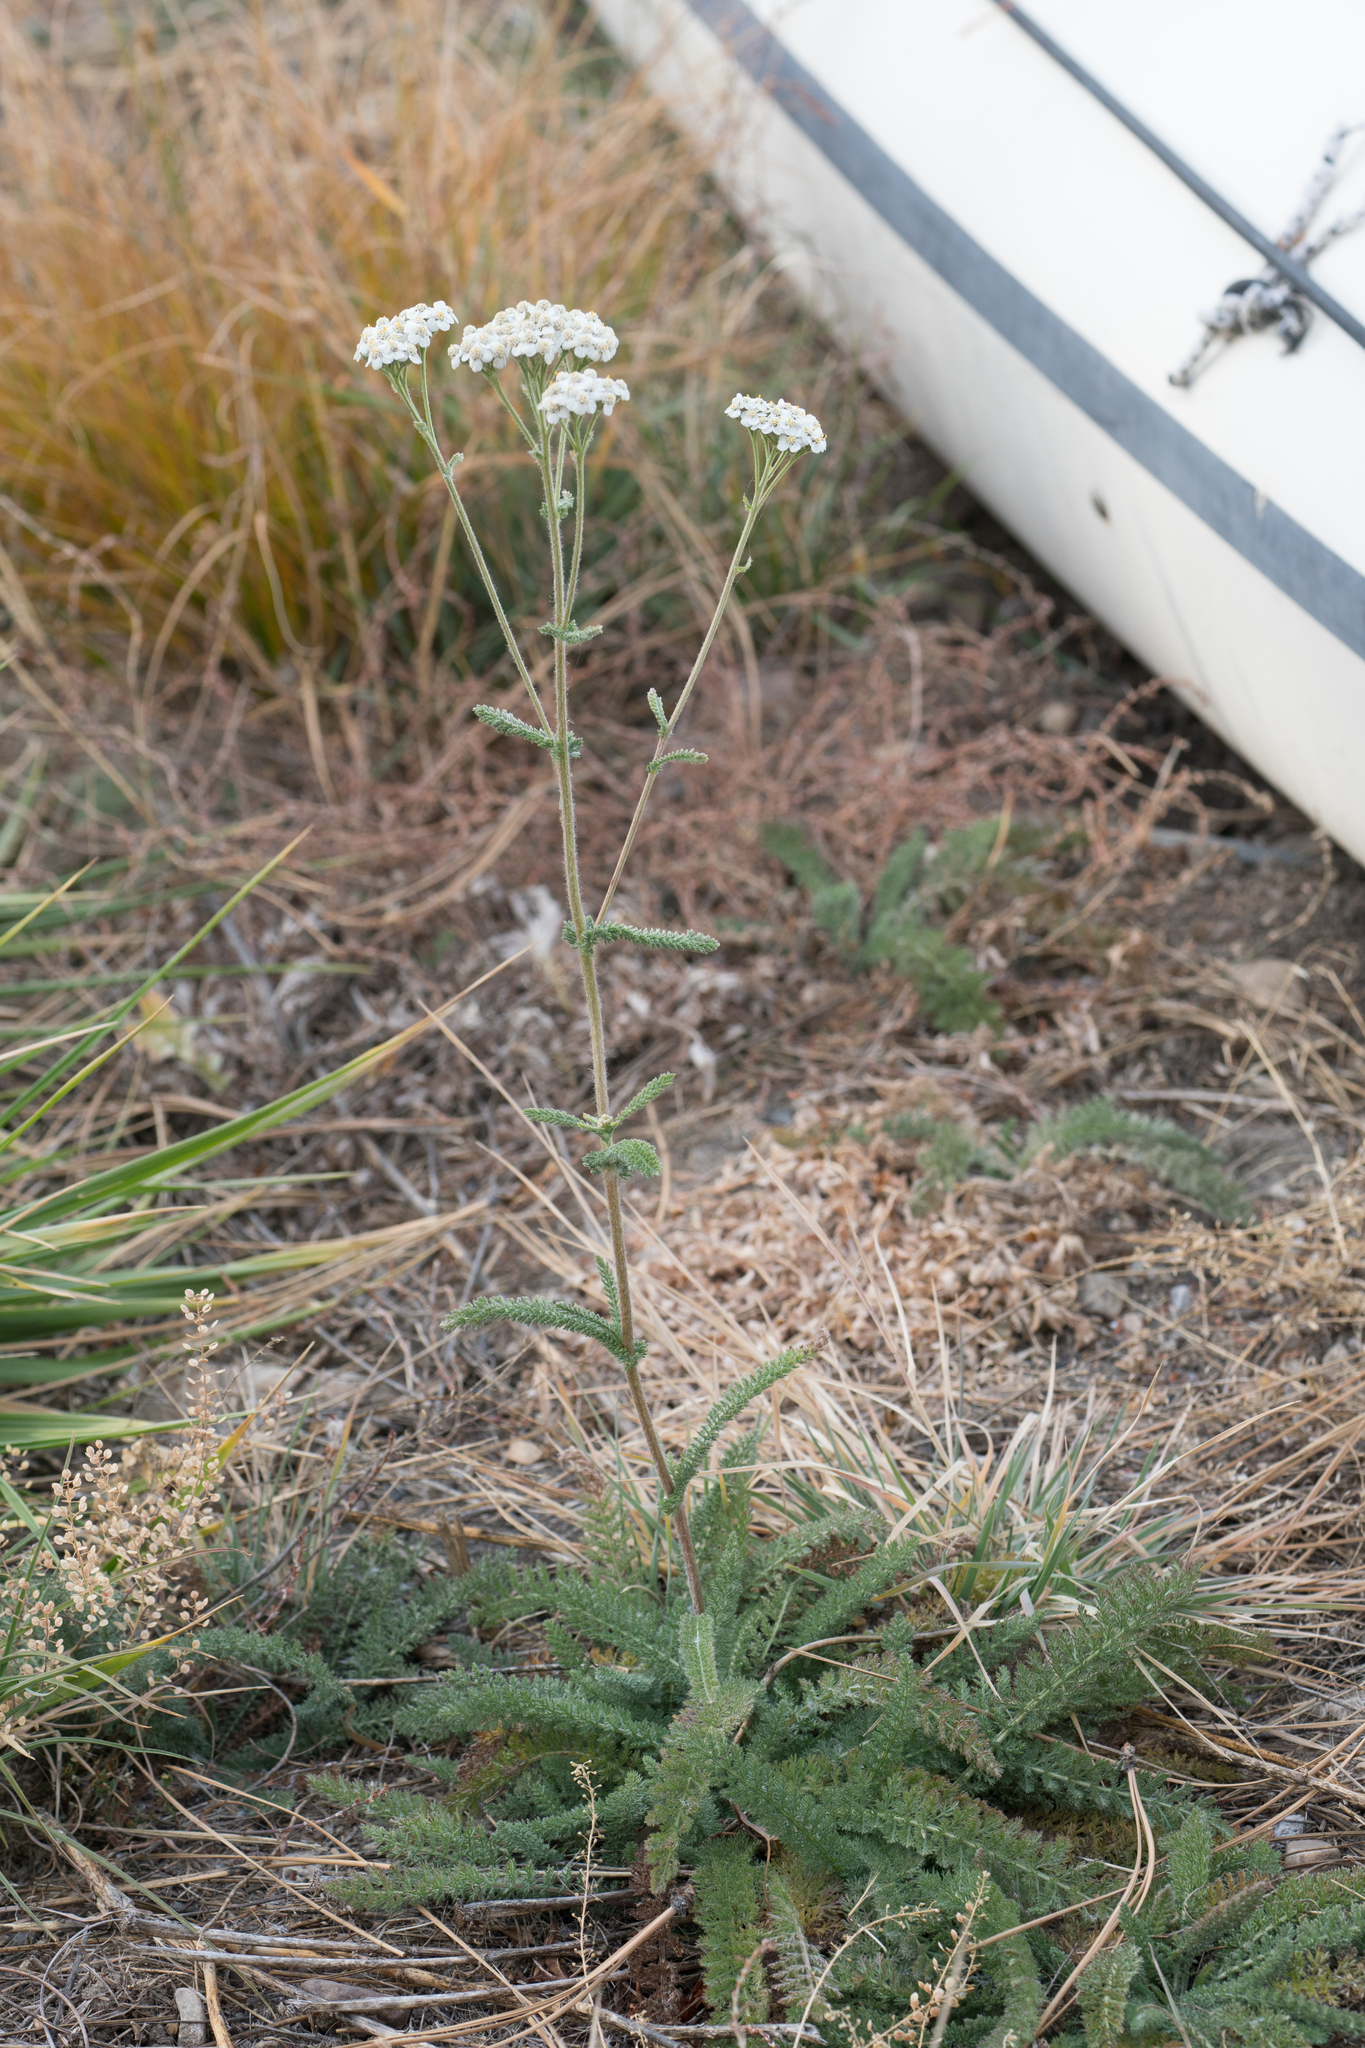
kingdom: Plantae
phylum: Tracheophyta
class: Magnoliopsida
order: Asterales
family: Asteraceae
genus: Achillea
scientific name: Achillea millefolium
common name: Yarrow
